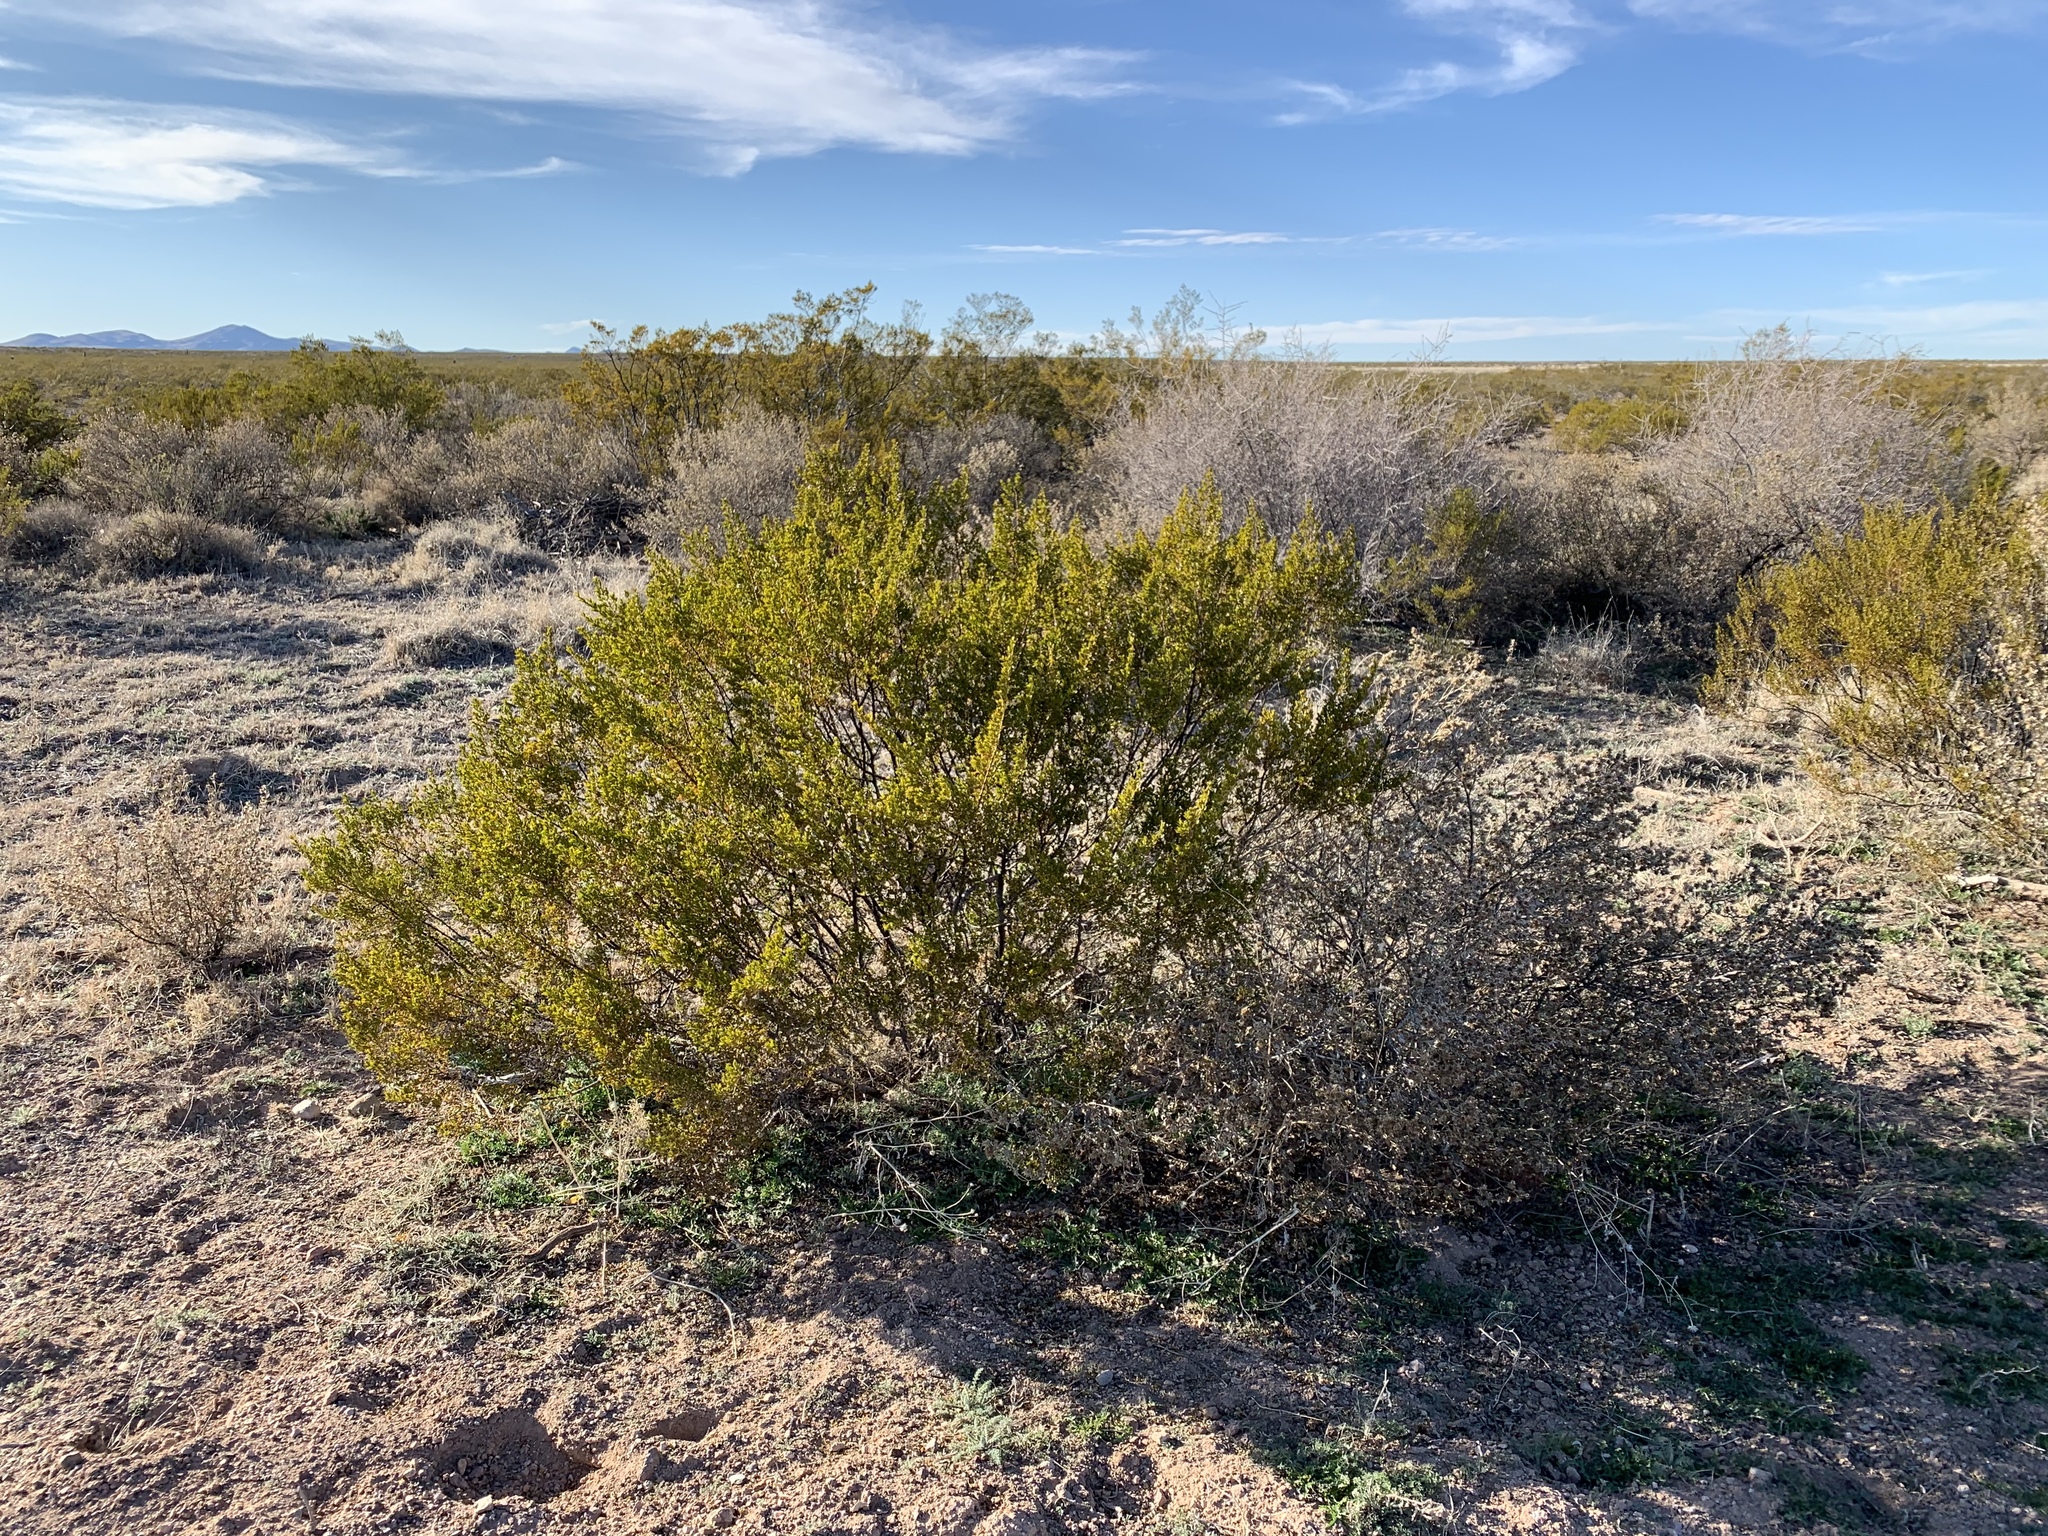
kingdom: Plantae
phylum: Tracheophyta
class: Magnoliopsida
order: Zygophyllales
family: Zygophyllaceae
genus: Larrea
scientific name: Larrea tridentata
